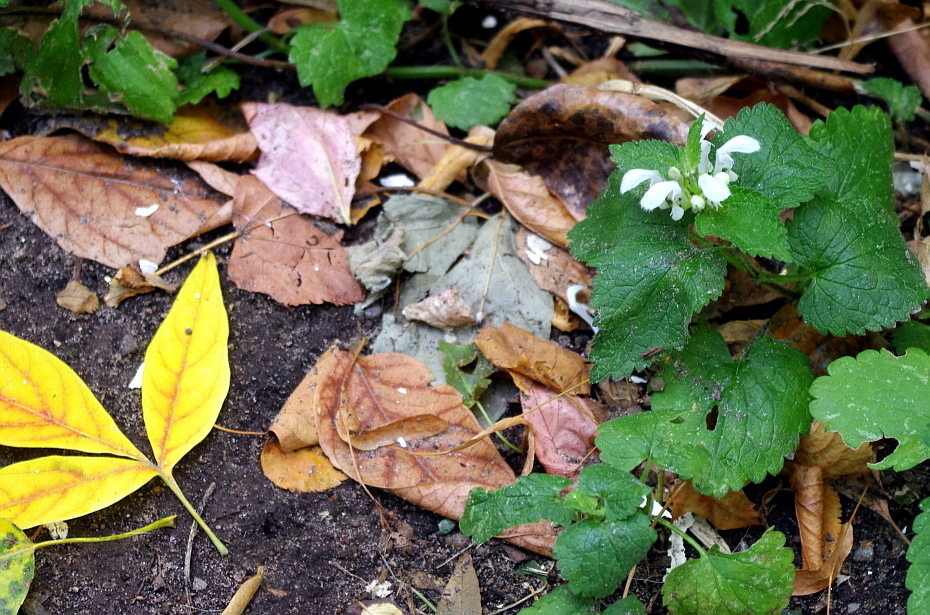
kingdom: Plantae
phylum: Tracheophyta
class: Magnoliopsida
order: Lamiales
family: Lamiaceae
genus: Lamium
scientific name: Lamium album
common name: White dead-nettle
